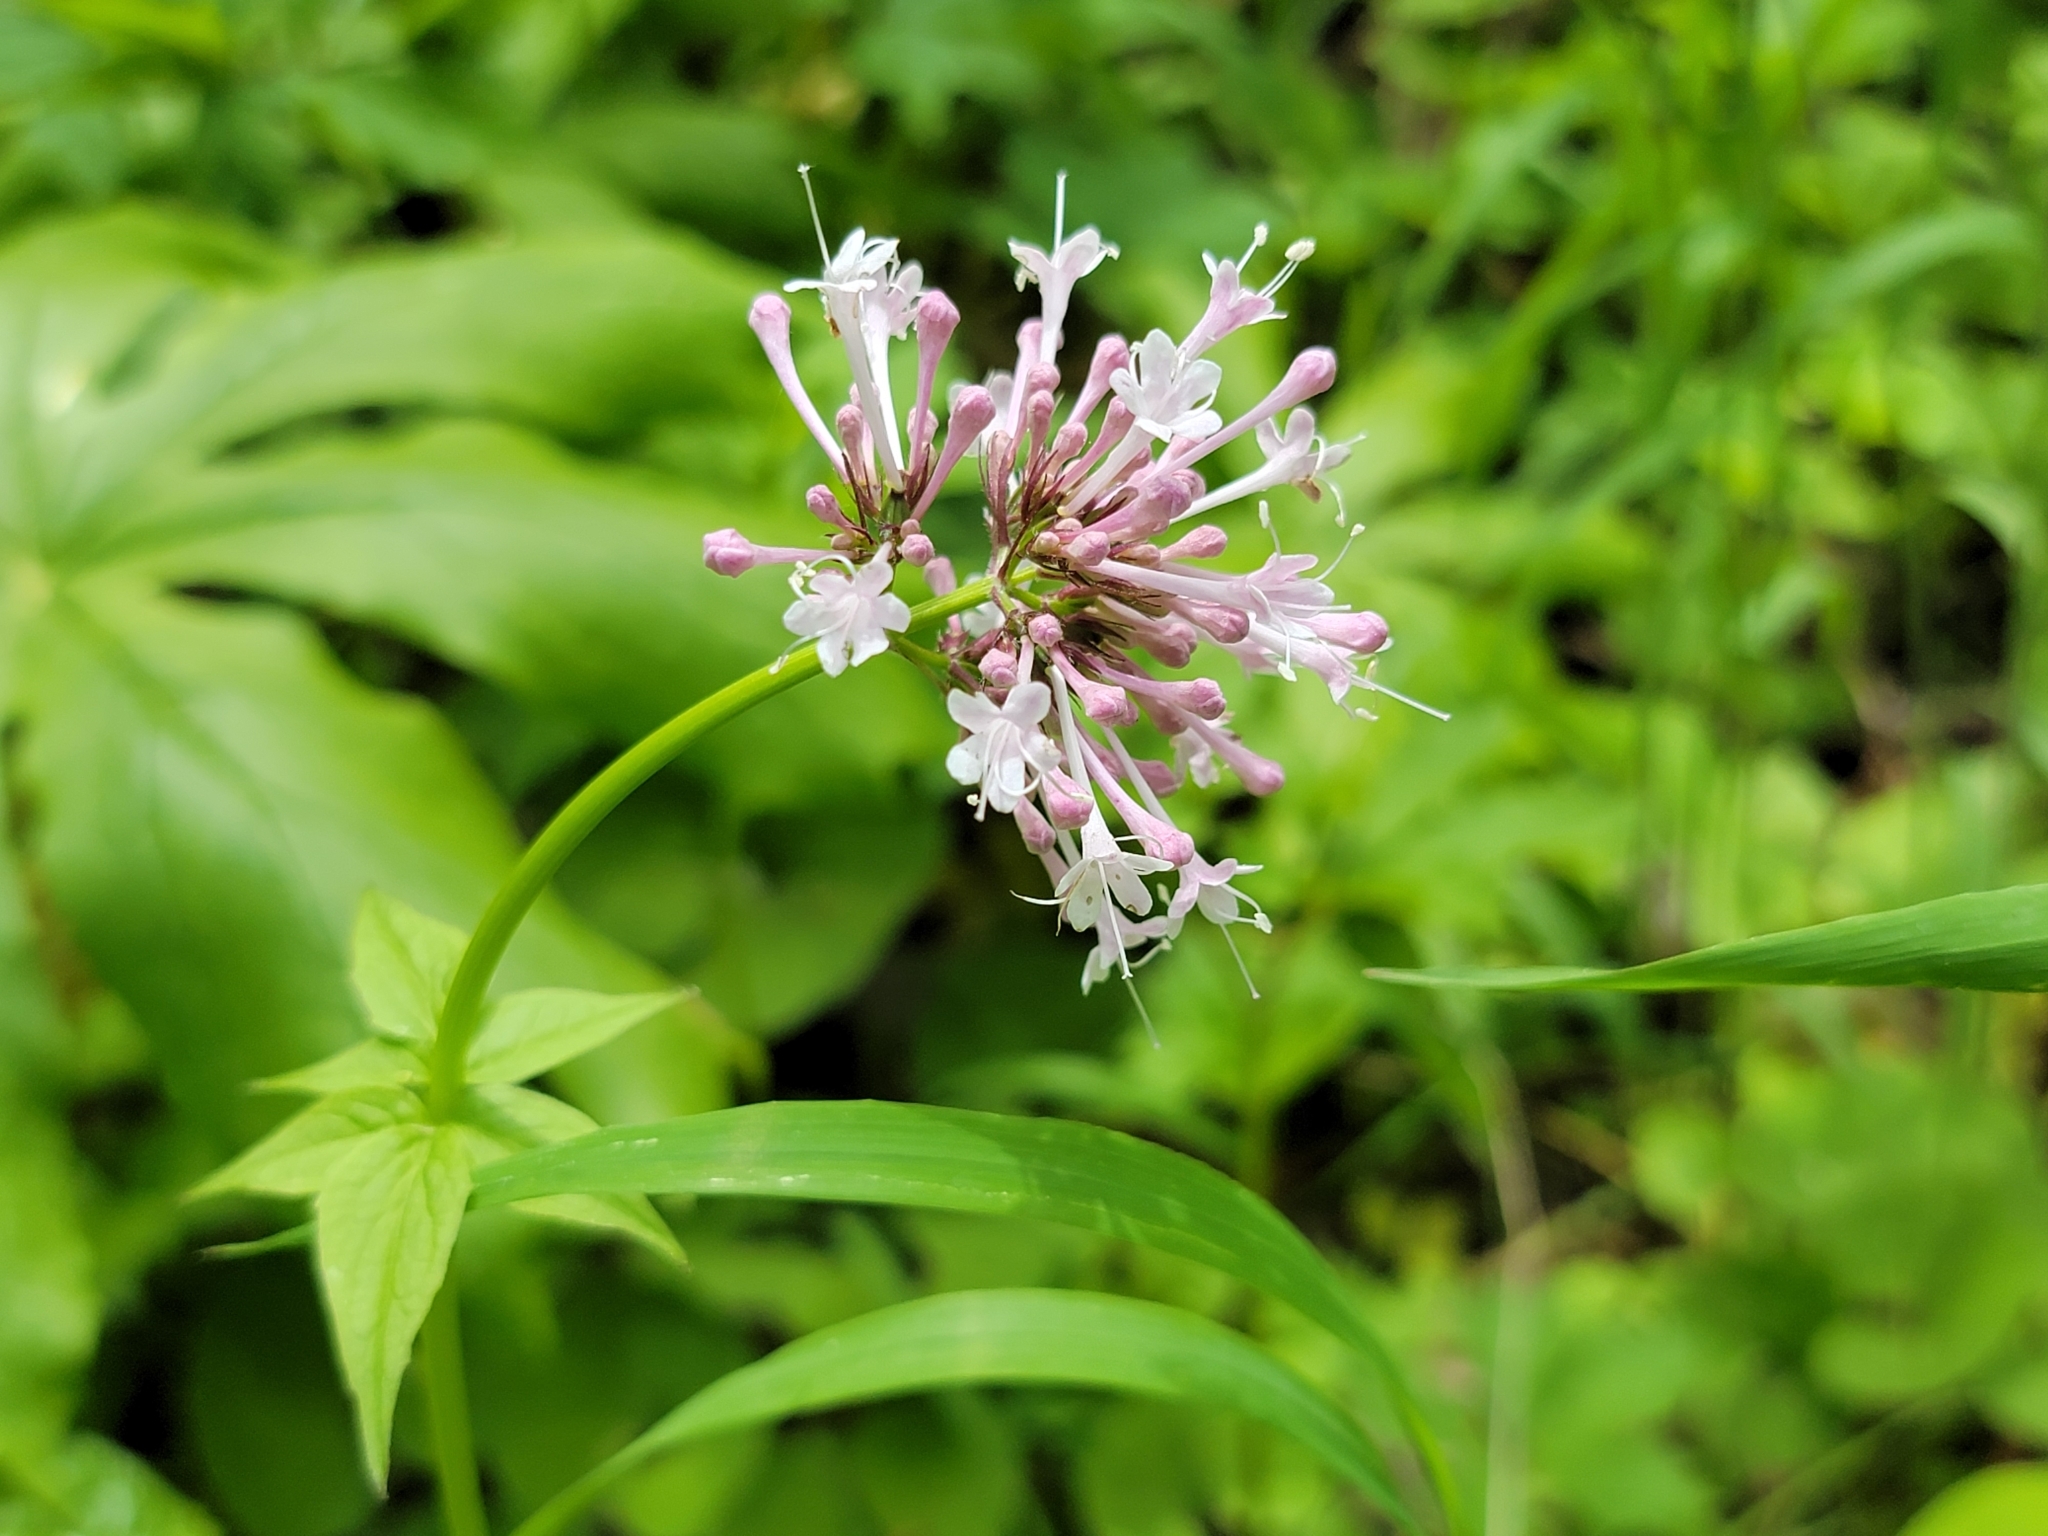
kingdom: Plantae
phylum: Tracheophyta
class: Magnoliopsida
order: Dipsacales
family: Caprifoliaceae
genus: Valeriana
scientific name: Valeriana pauciflora
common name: Long-tube valeriana
